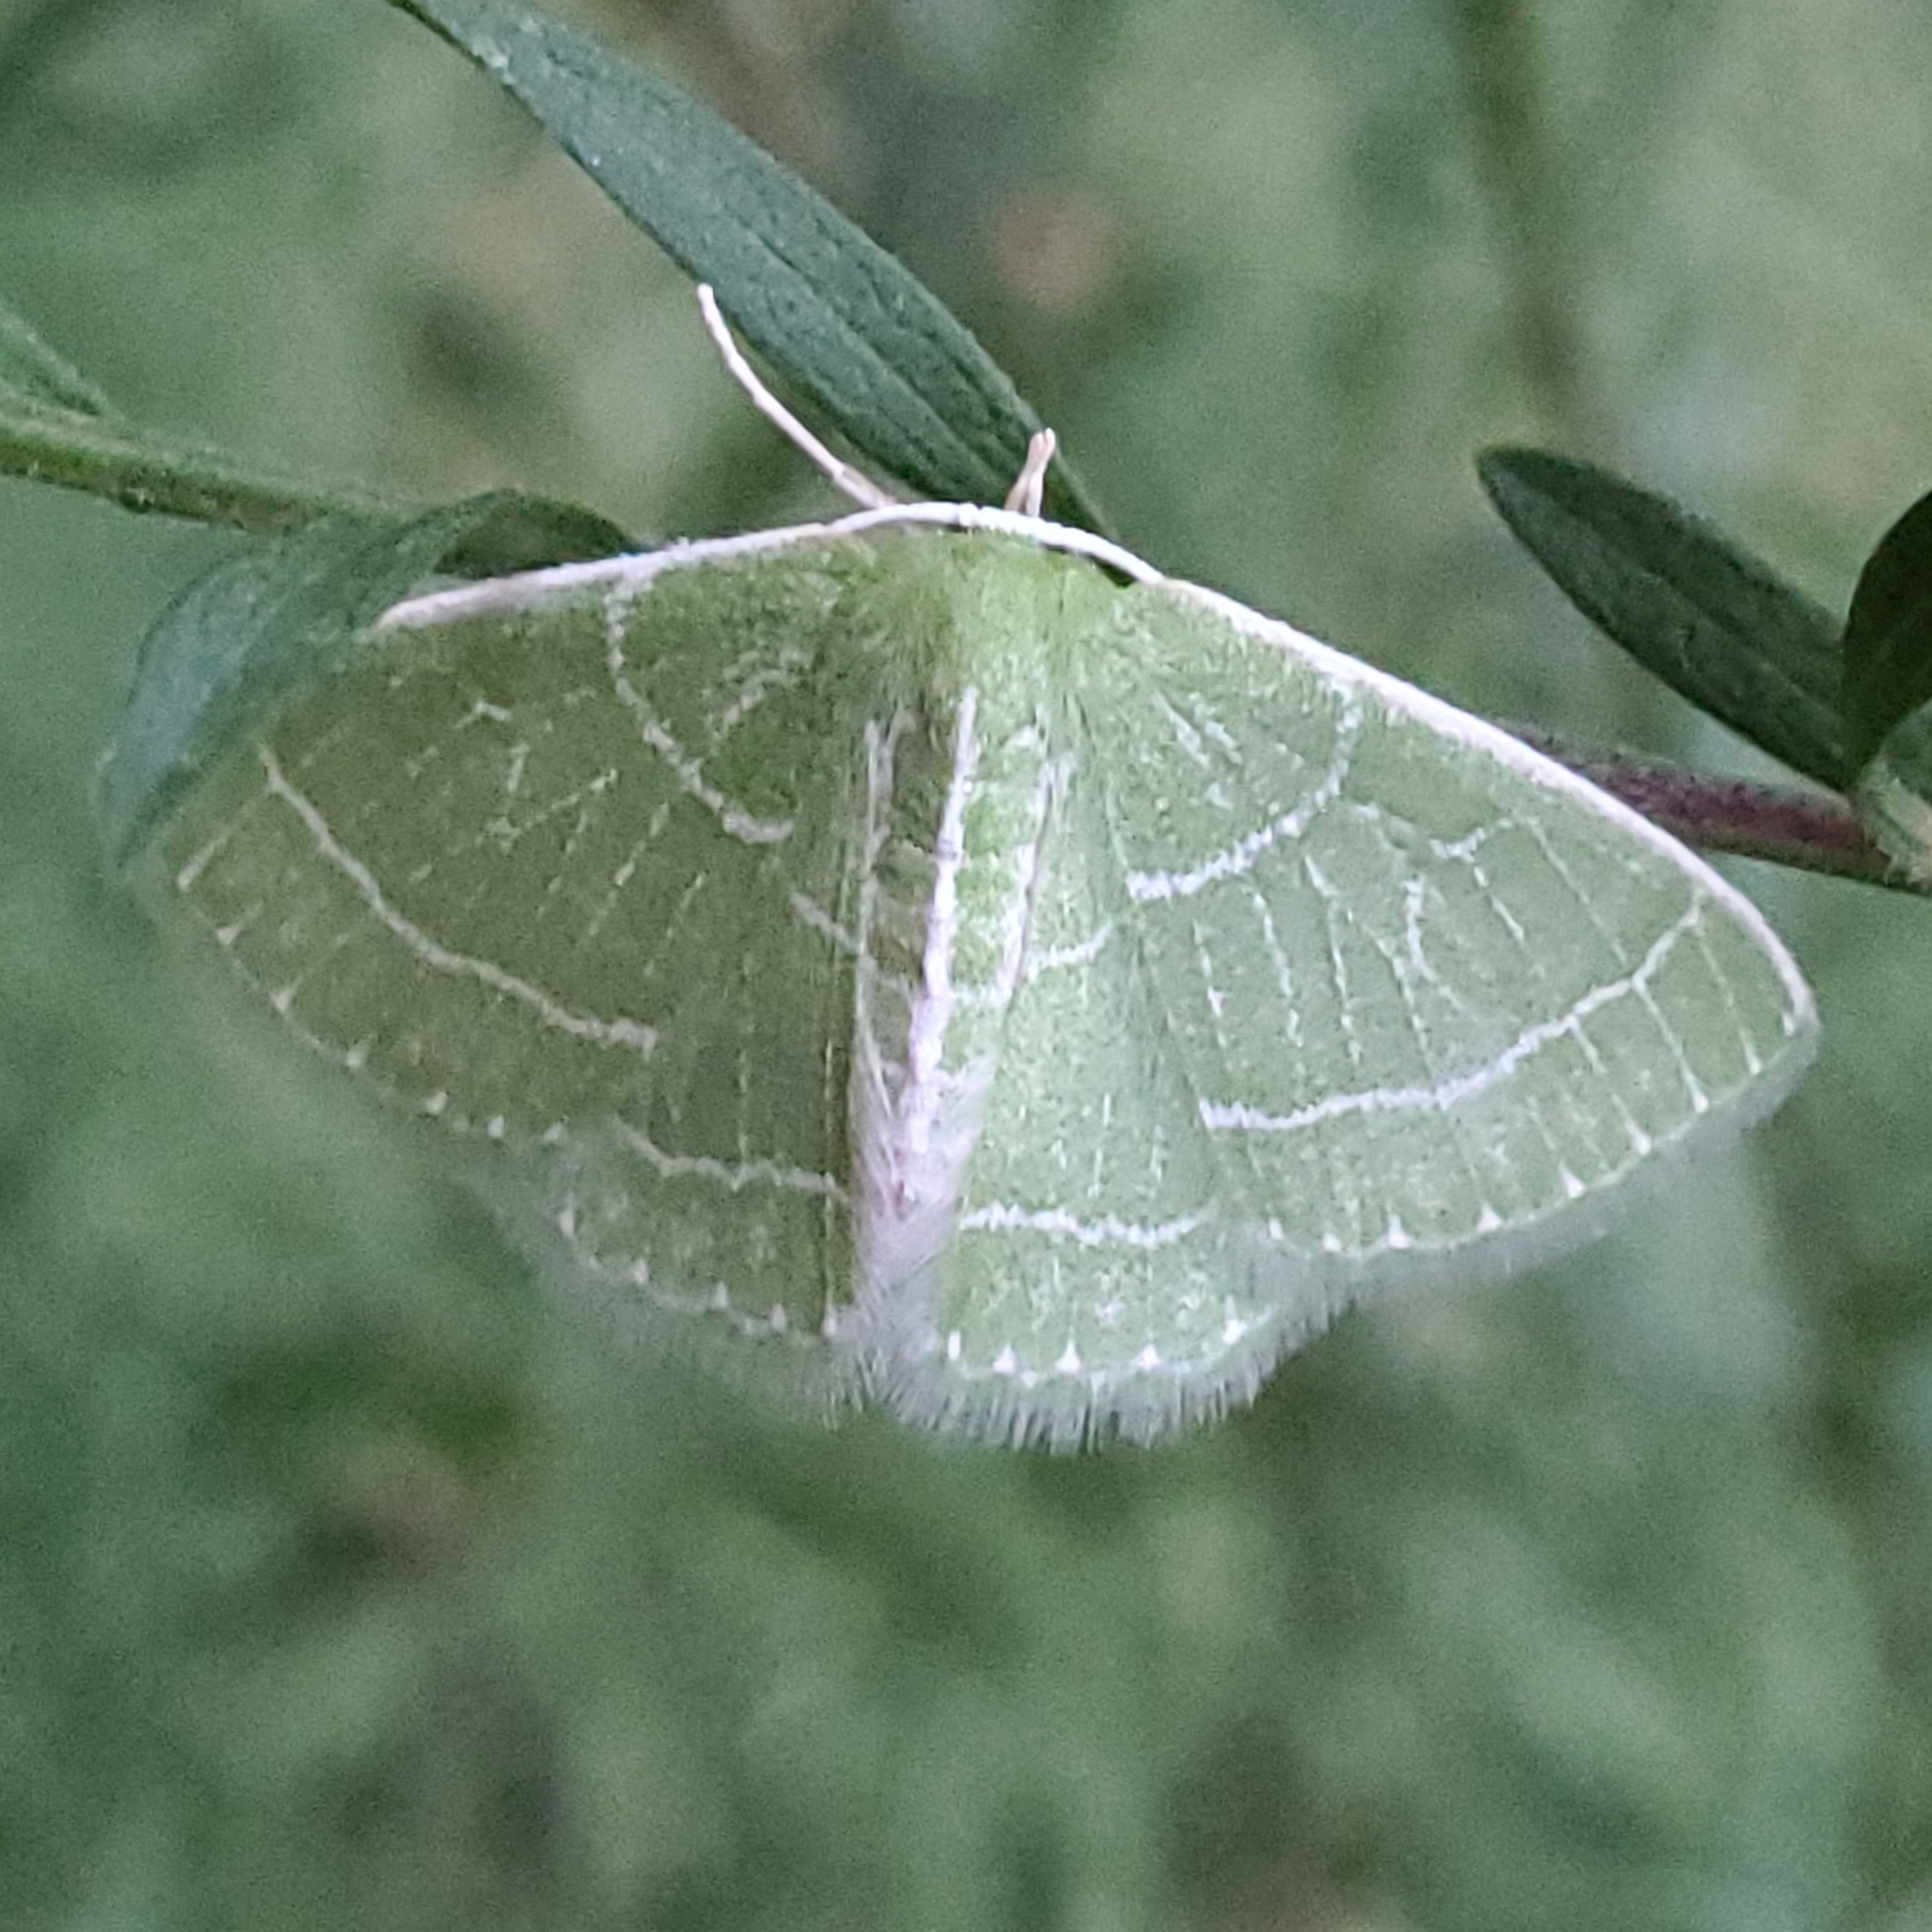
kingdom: Animalia
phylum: Arthropoda
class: Insecta
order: Lepidoptera
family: Geometridae
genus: Synchlora
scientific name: Synchlora aerata
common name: Wavy-lined emerald
